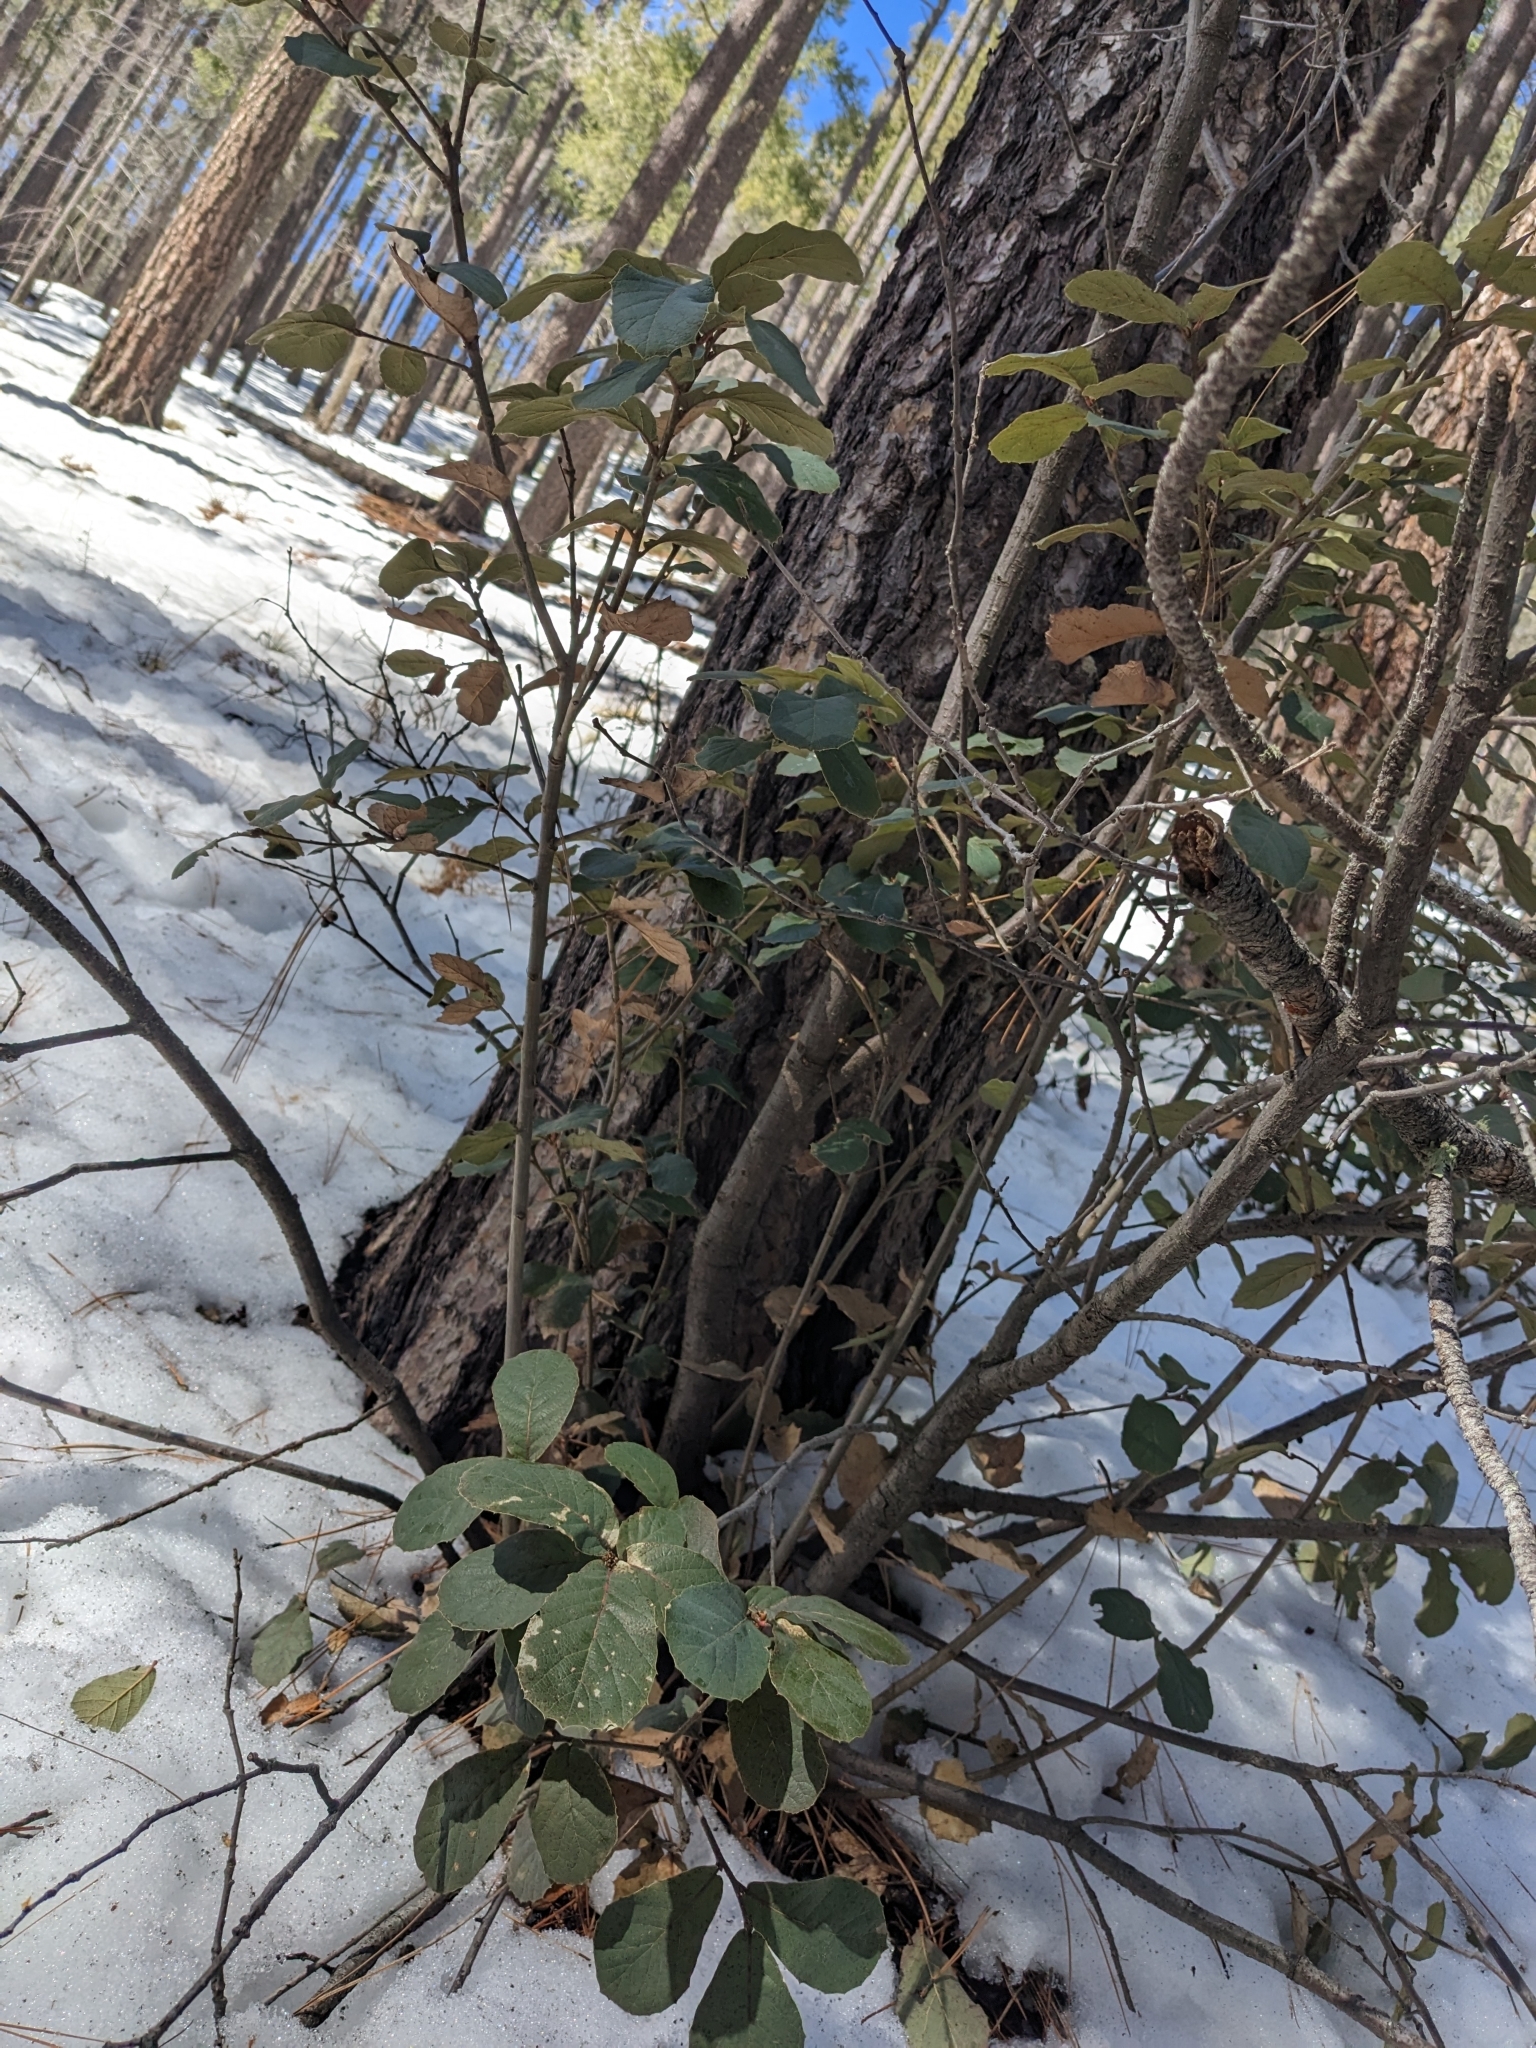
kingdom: Plantae
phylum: Tracheophyta
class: Magnoliopsida
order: Fagales
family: Fagaceae
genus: Quercus
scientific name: Quercus rugosa
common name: Netleaf oak
